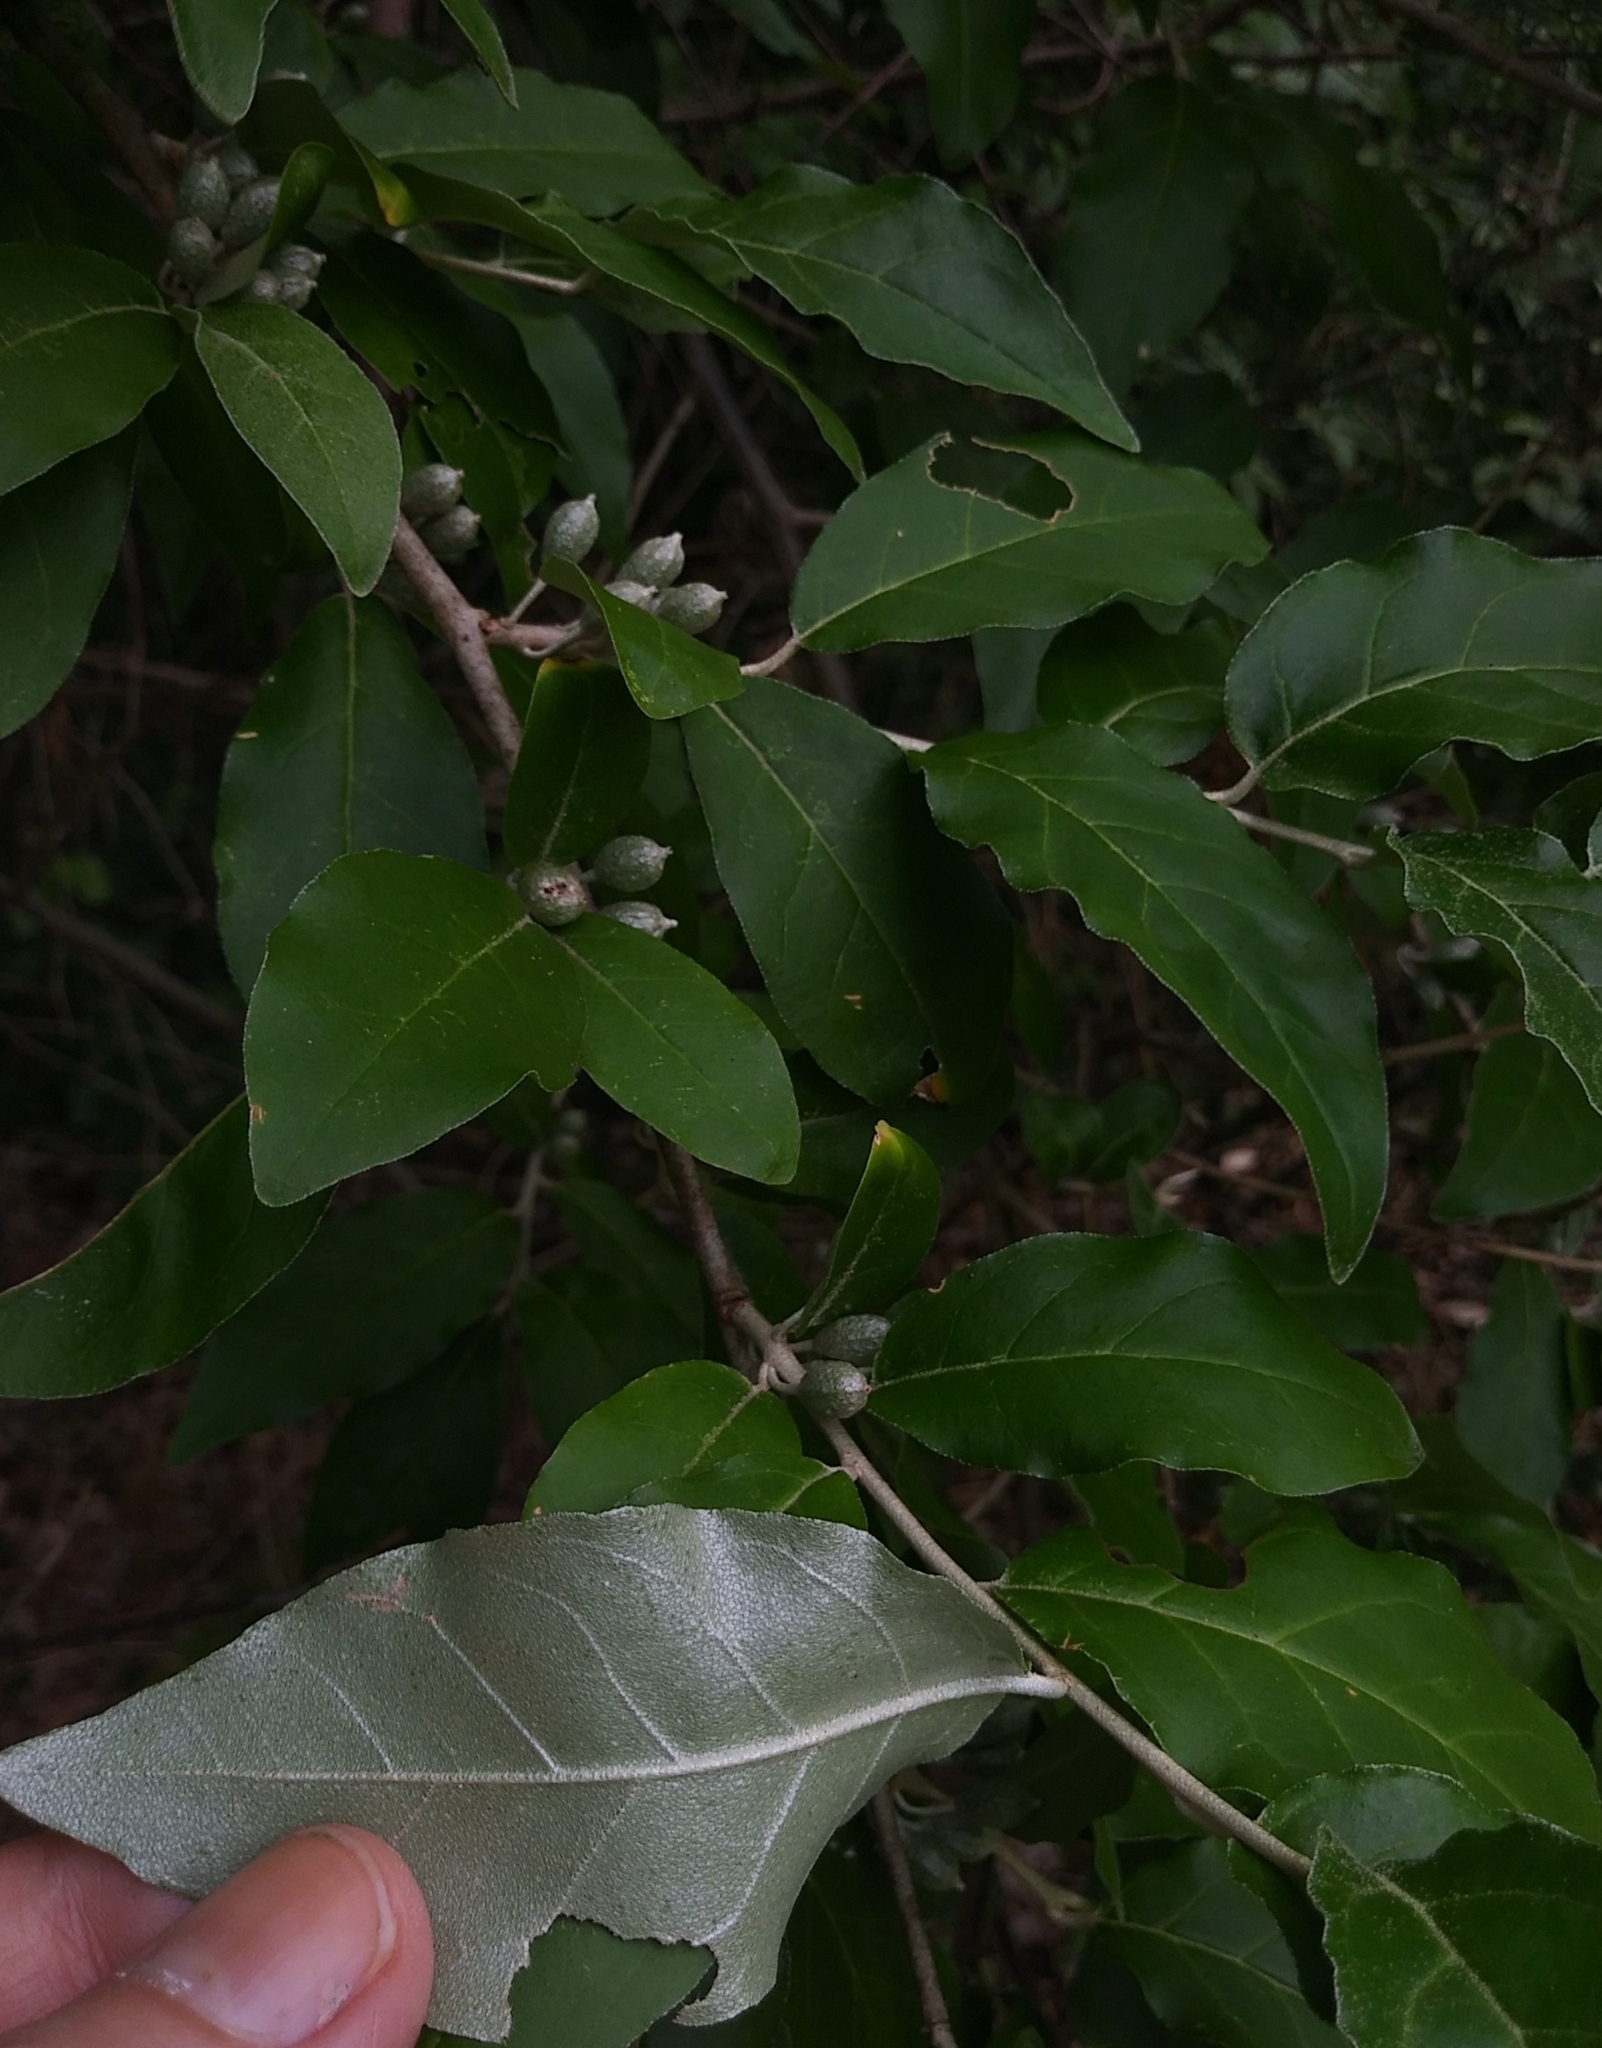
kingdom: Plantae
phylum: Tracheophyta
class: Magnoliopsida
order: Rosales
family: Elaeagnaceae
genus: Elaeagnus
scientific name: Elaeagnus umbellata
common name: Autumn olive
